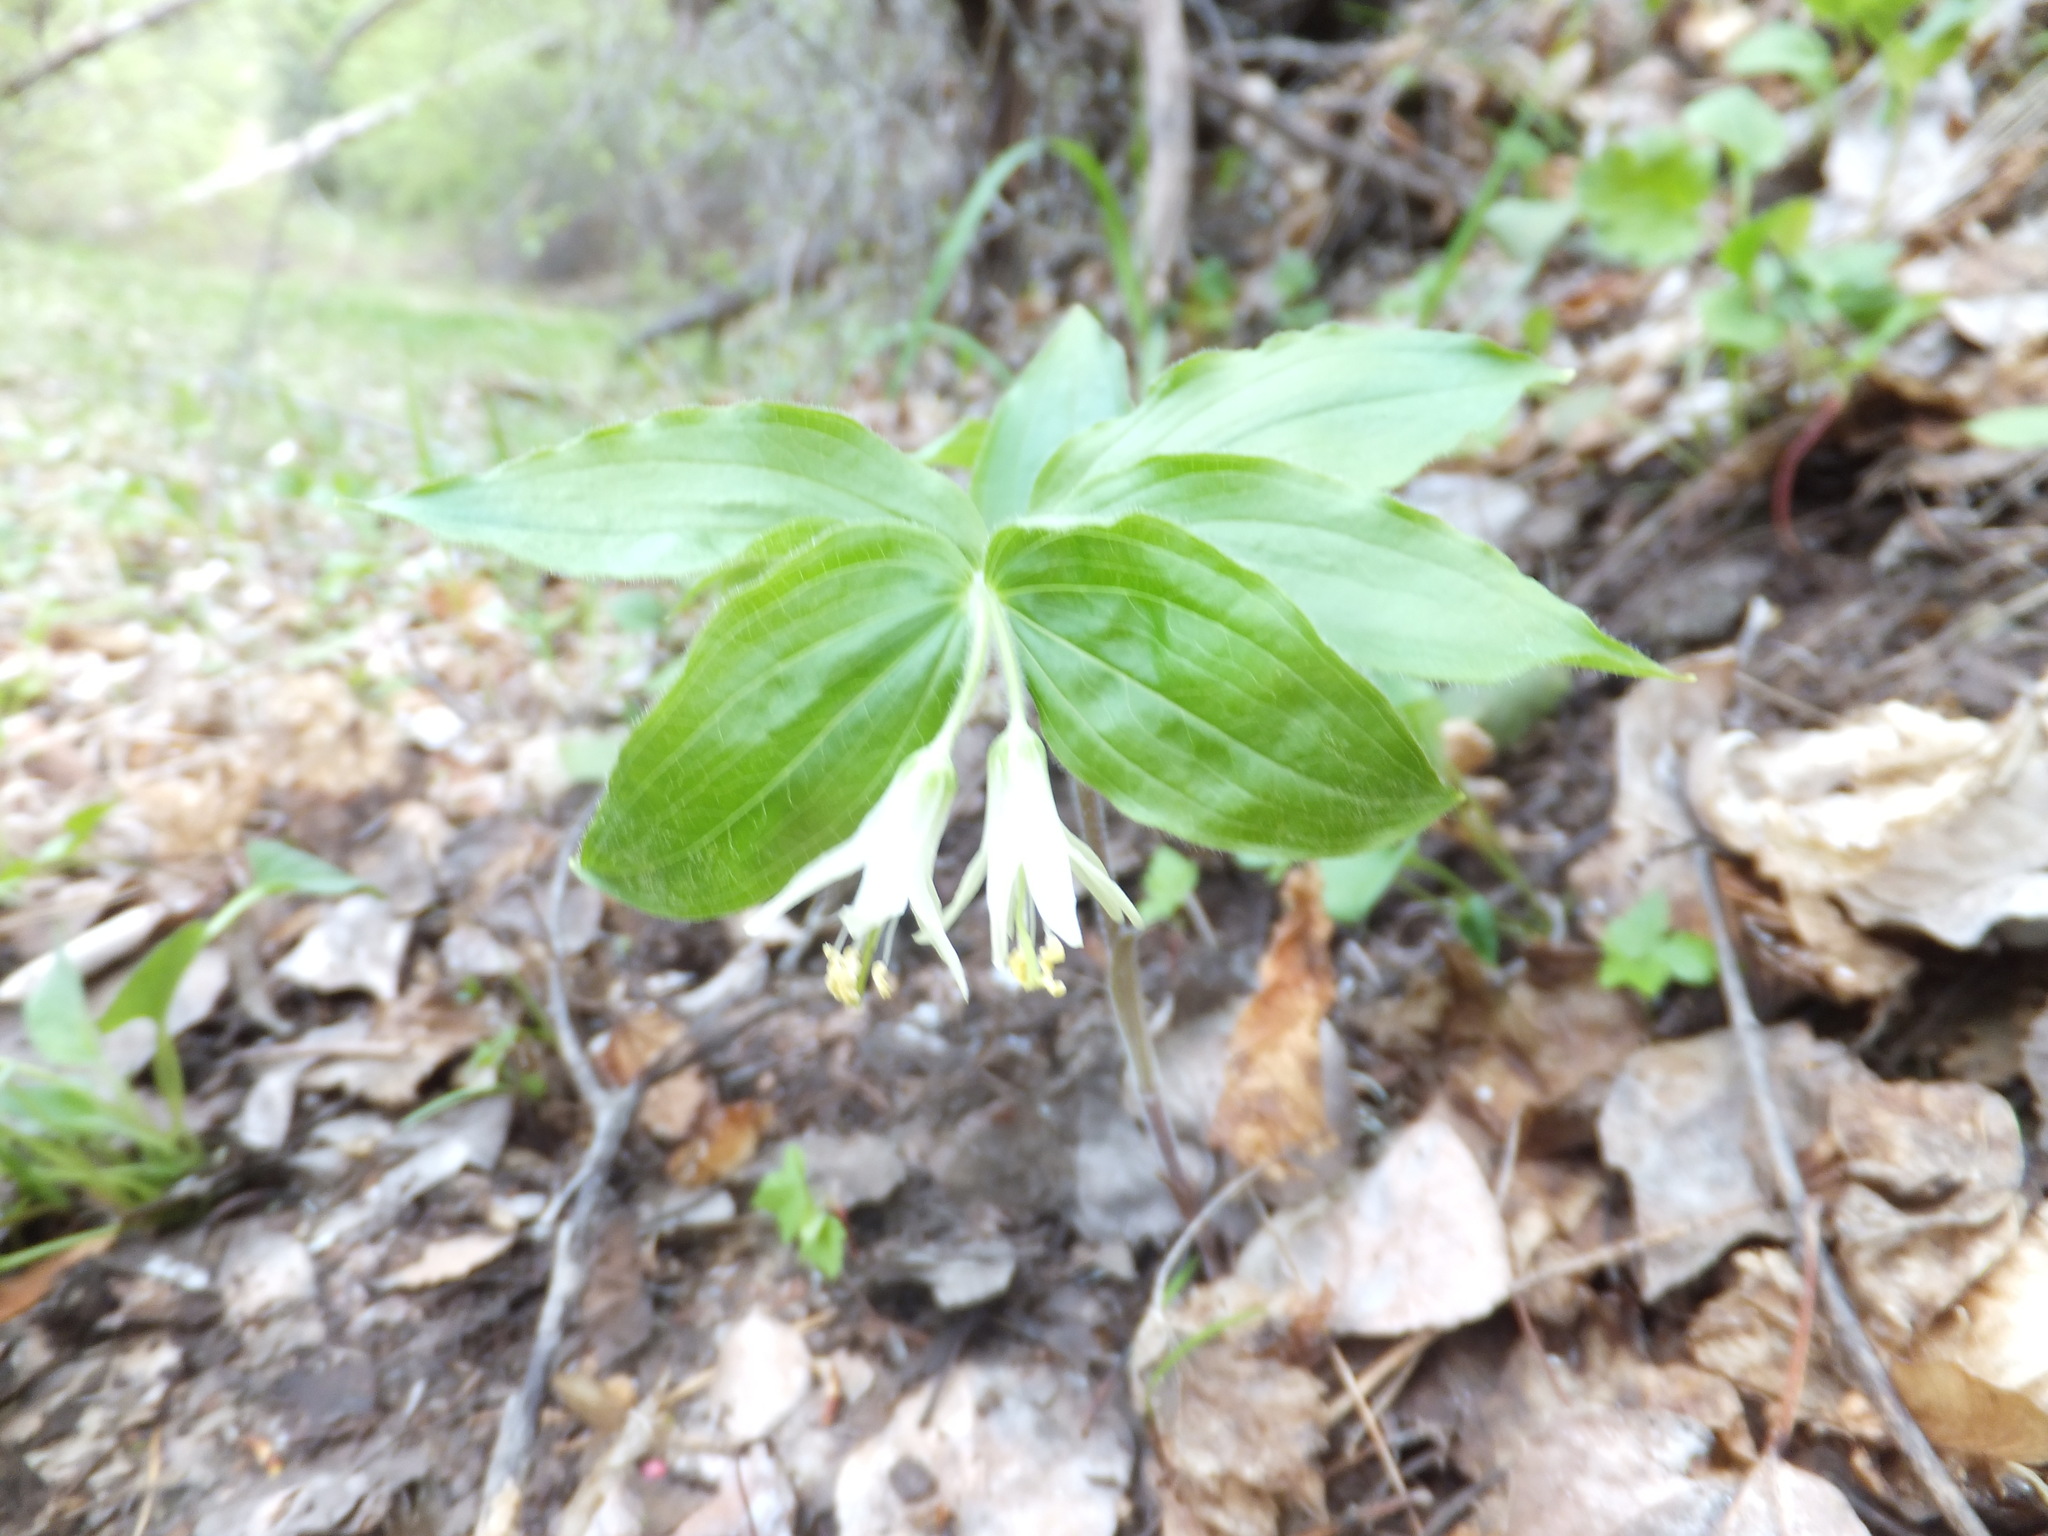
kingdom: Plantae
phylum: Tracheophyta
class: Liliopsida
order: Liliales
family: Liliaceae
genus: Prosartes
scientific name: Prosartes trachycarpa
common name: Rough-fruit fairy-bells
